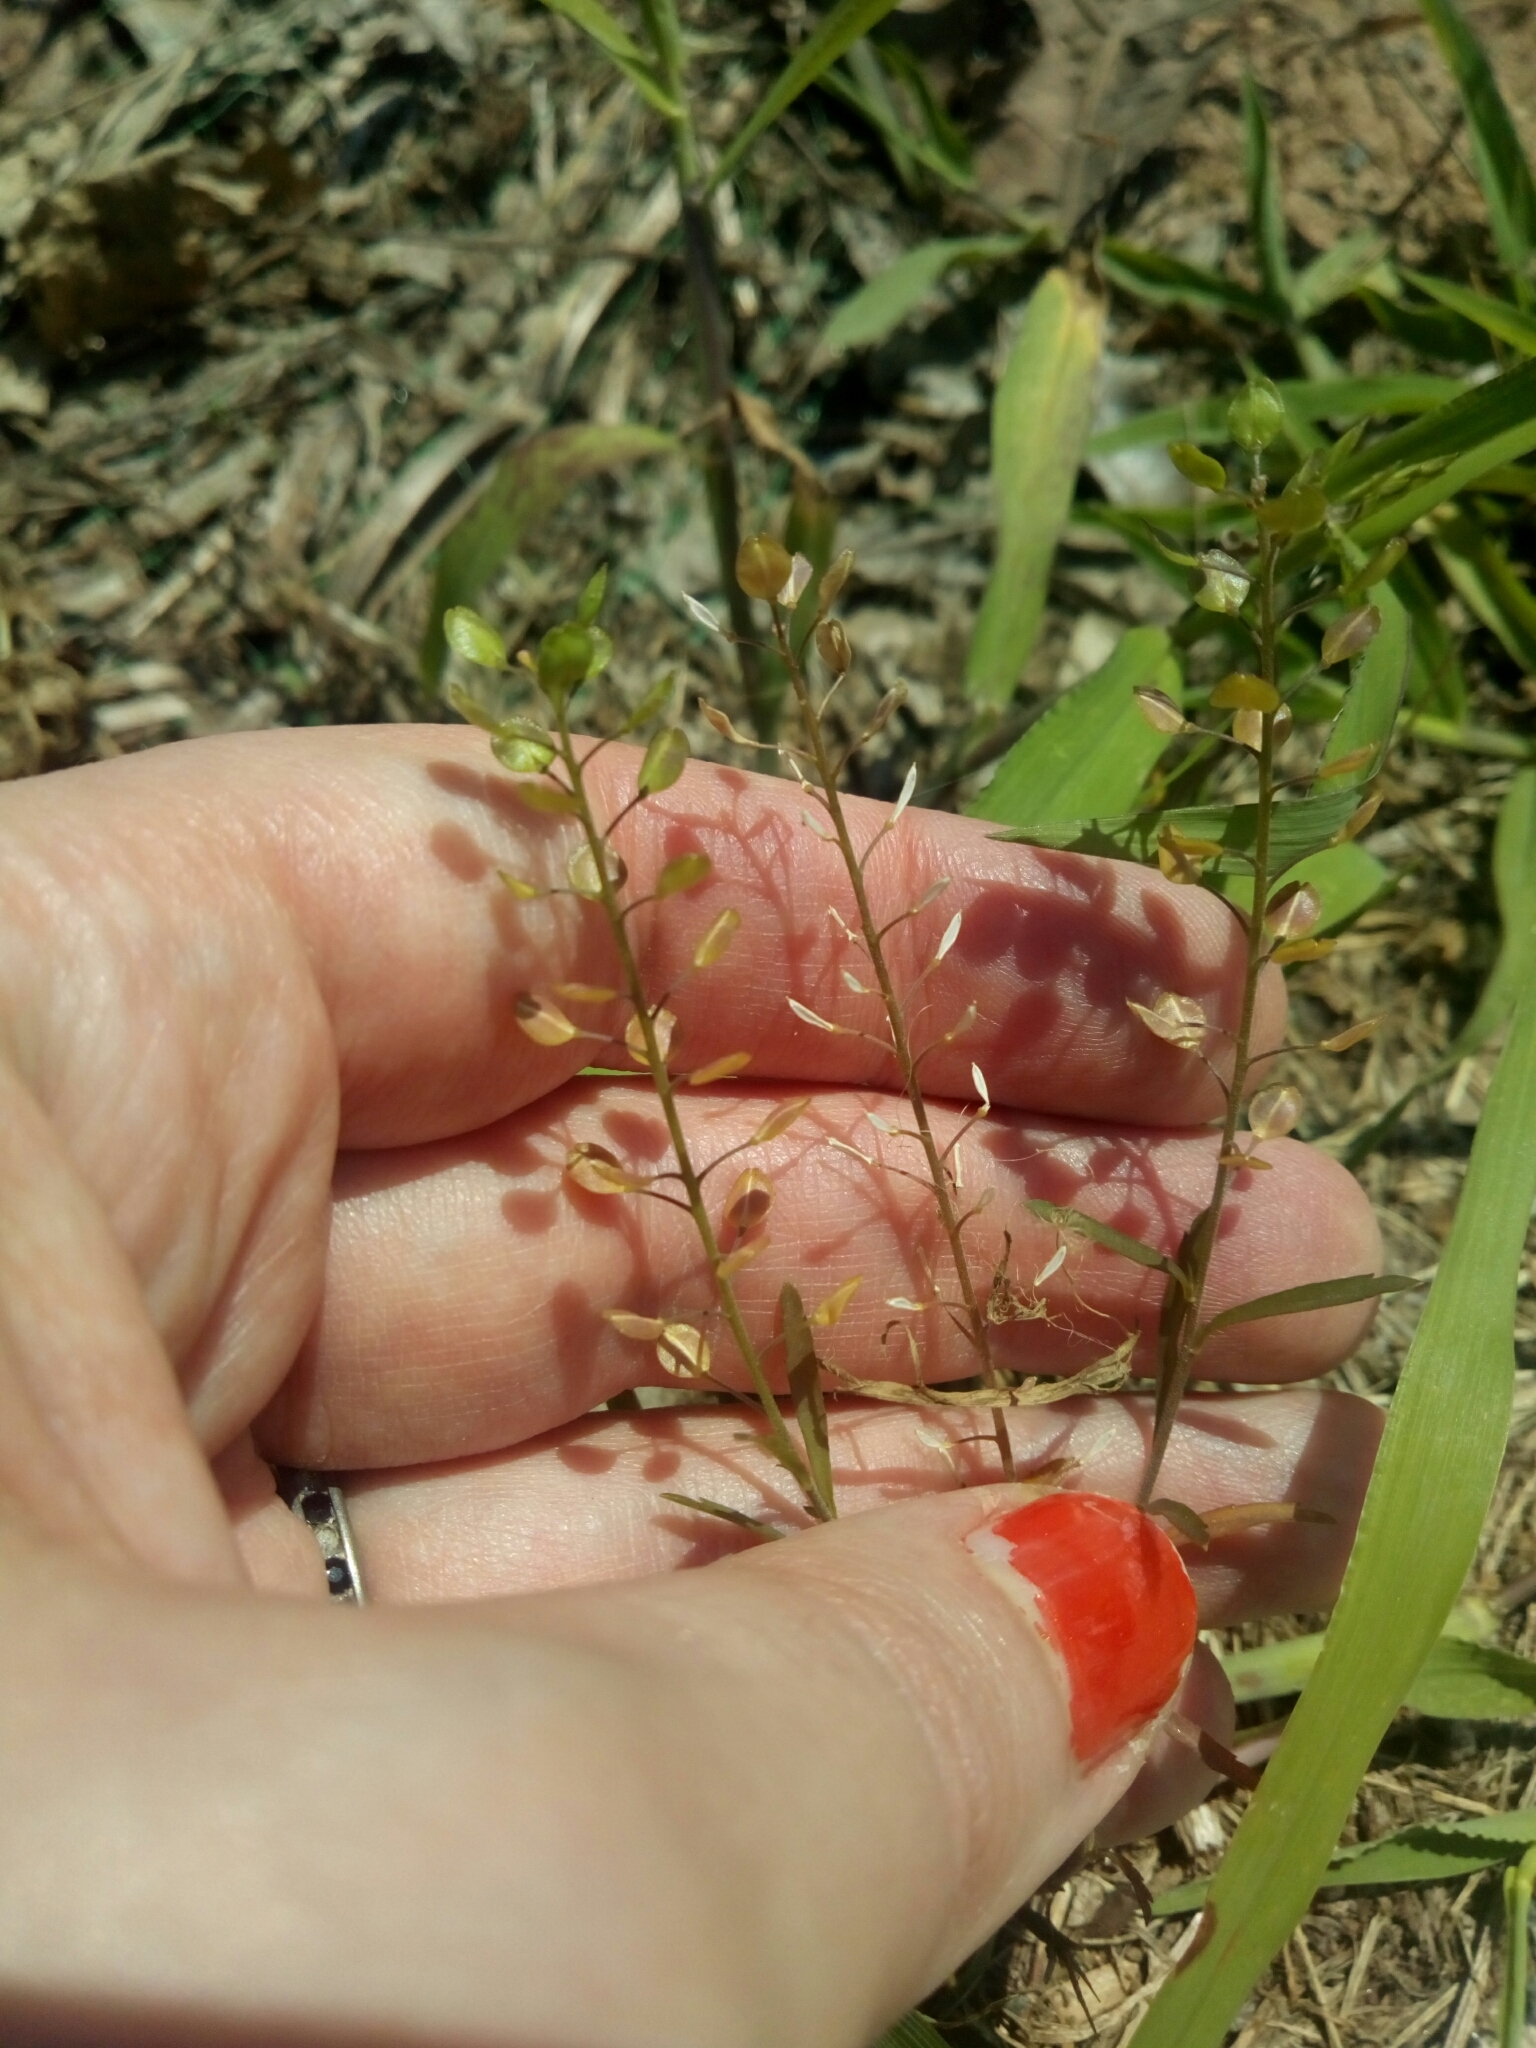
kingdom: Plantae
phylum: Tracheophyta
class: Magnoliopsida
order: Brassicales
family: Brassicaceae
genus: Lepidium
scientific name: Lepidium virginicum
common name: Least pepperwort
